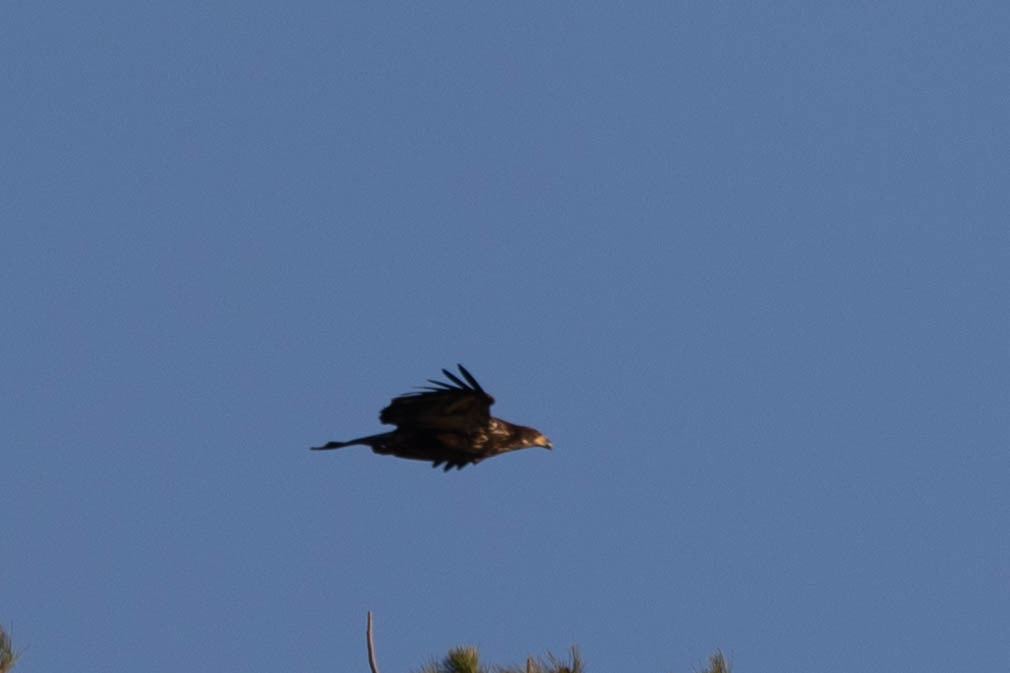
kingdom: Animalia
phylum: Chordata
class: Aves
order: Accipitriformes
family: Accipitridae
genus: Haliaeetus
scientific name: Haliaeetus leucocephalus
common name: Bald eagle
